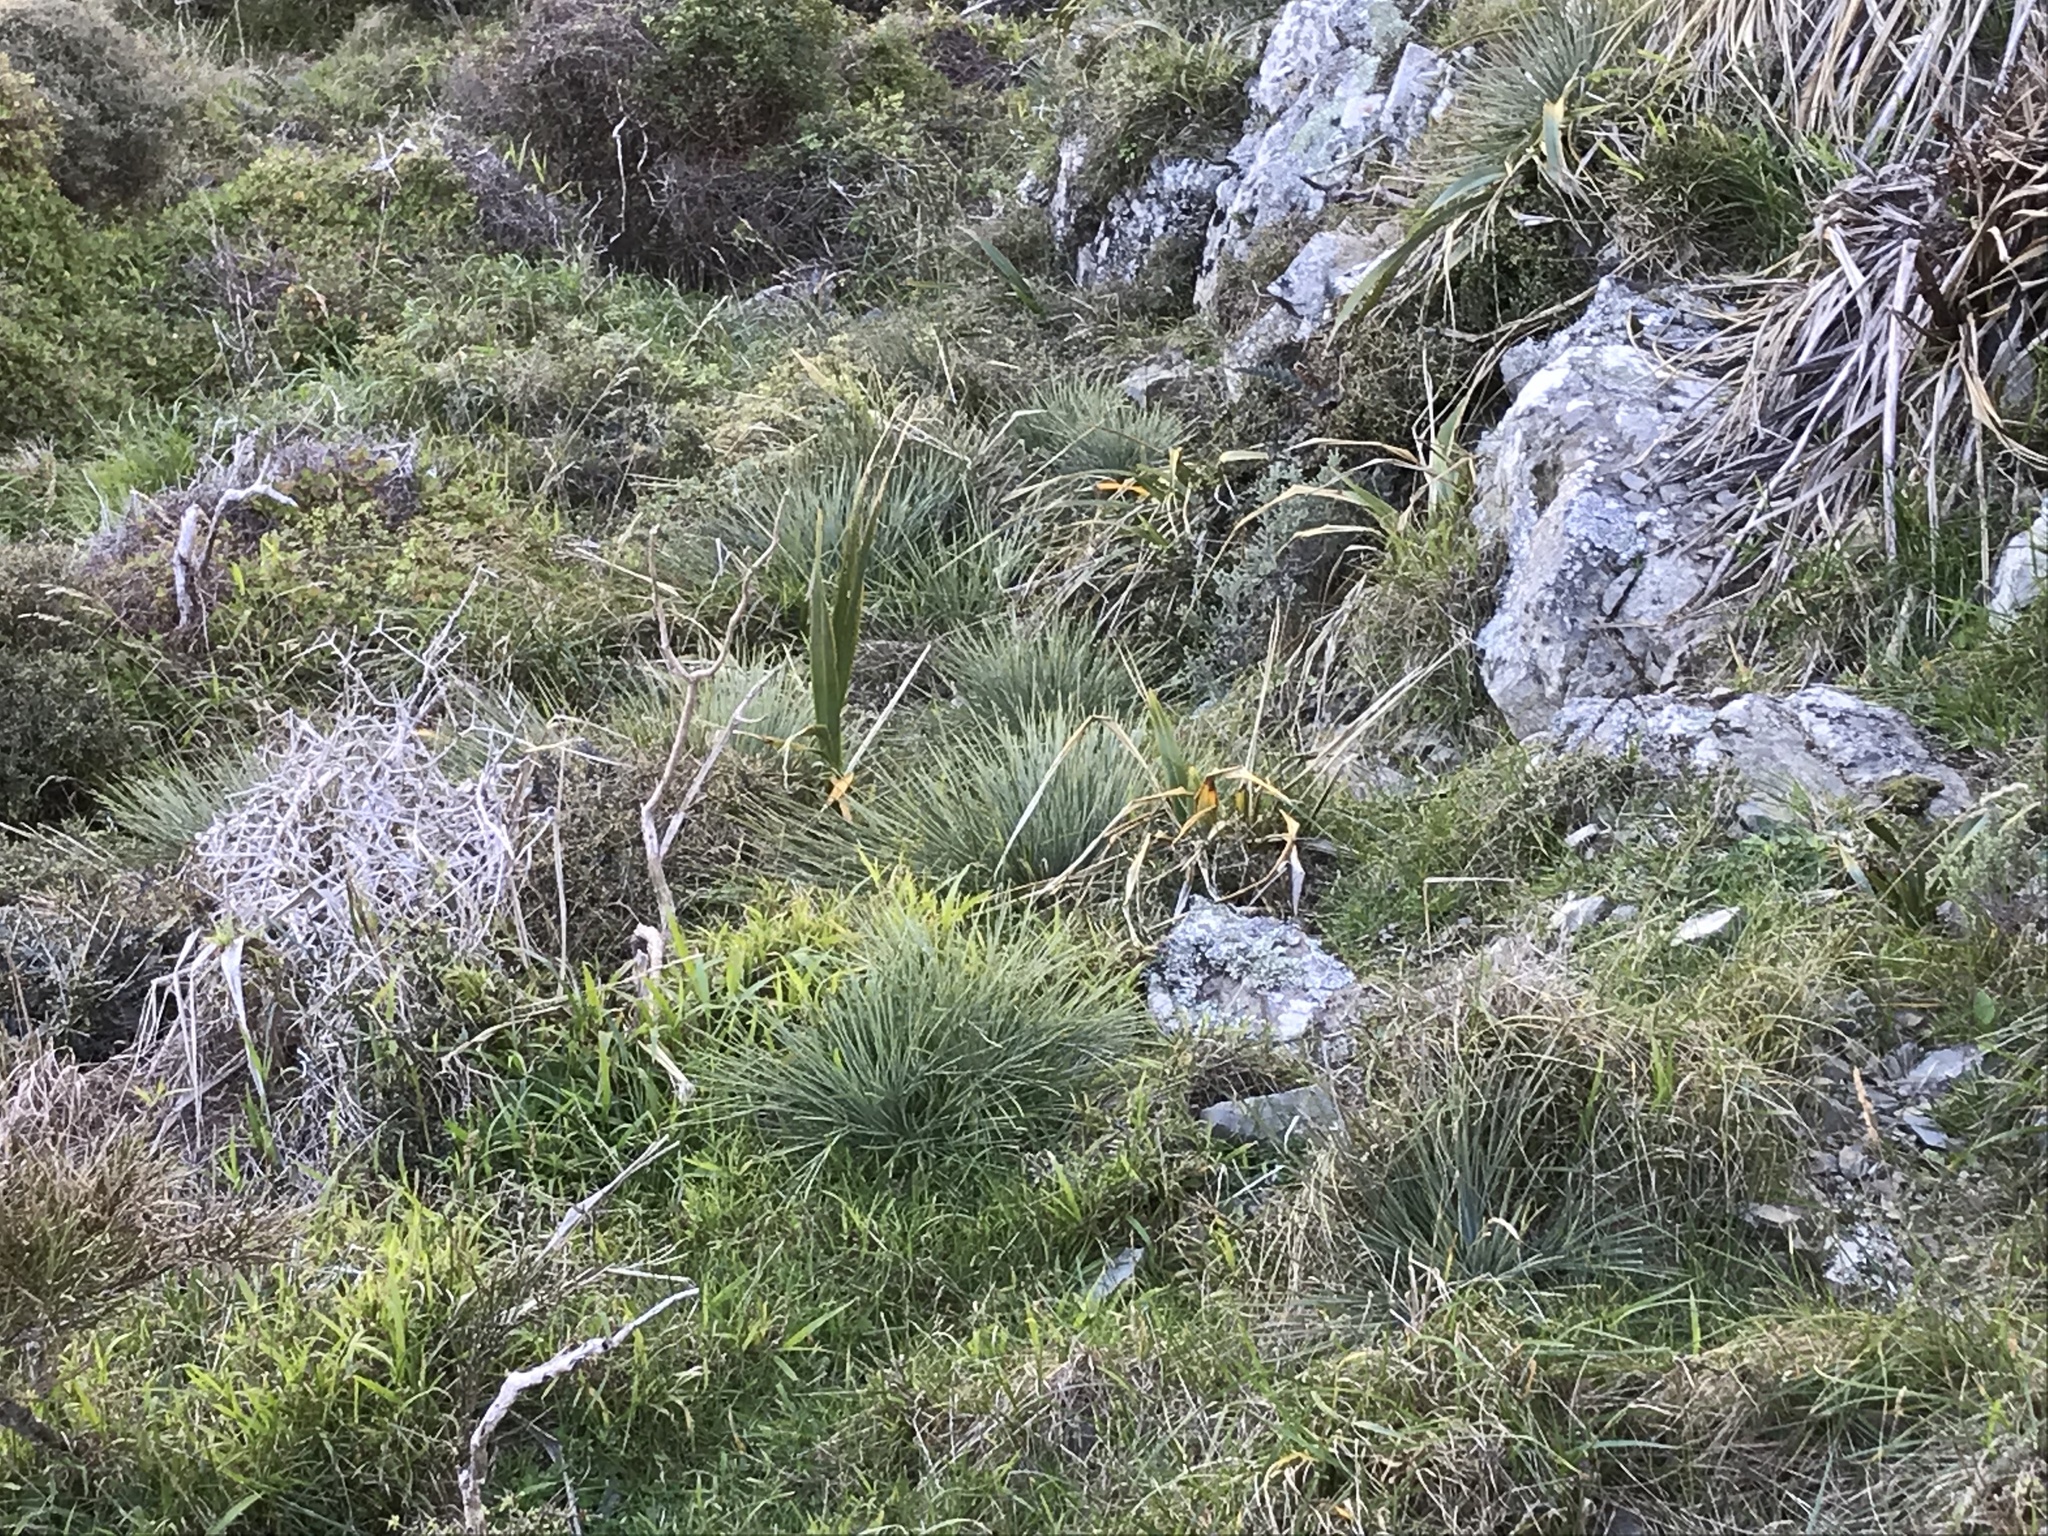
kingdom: Plantae
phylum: Tracheophyta
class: Magnoliopsida
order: Apiales
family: Apiaceae
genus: Aciphylla
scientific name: Aciphylla squarrosa
